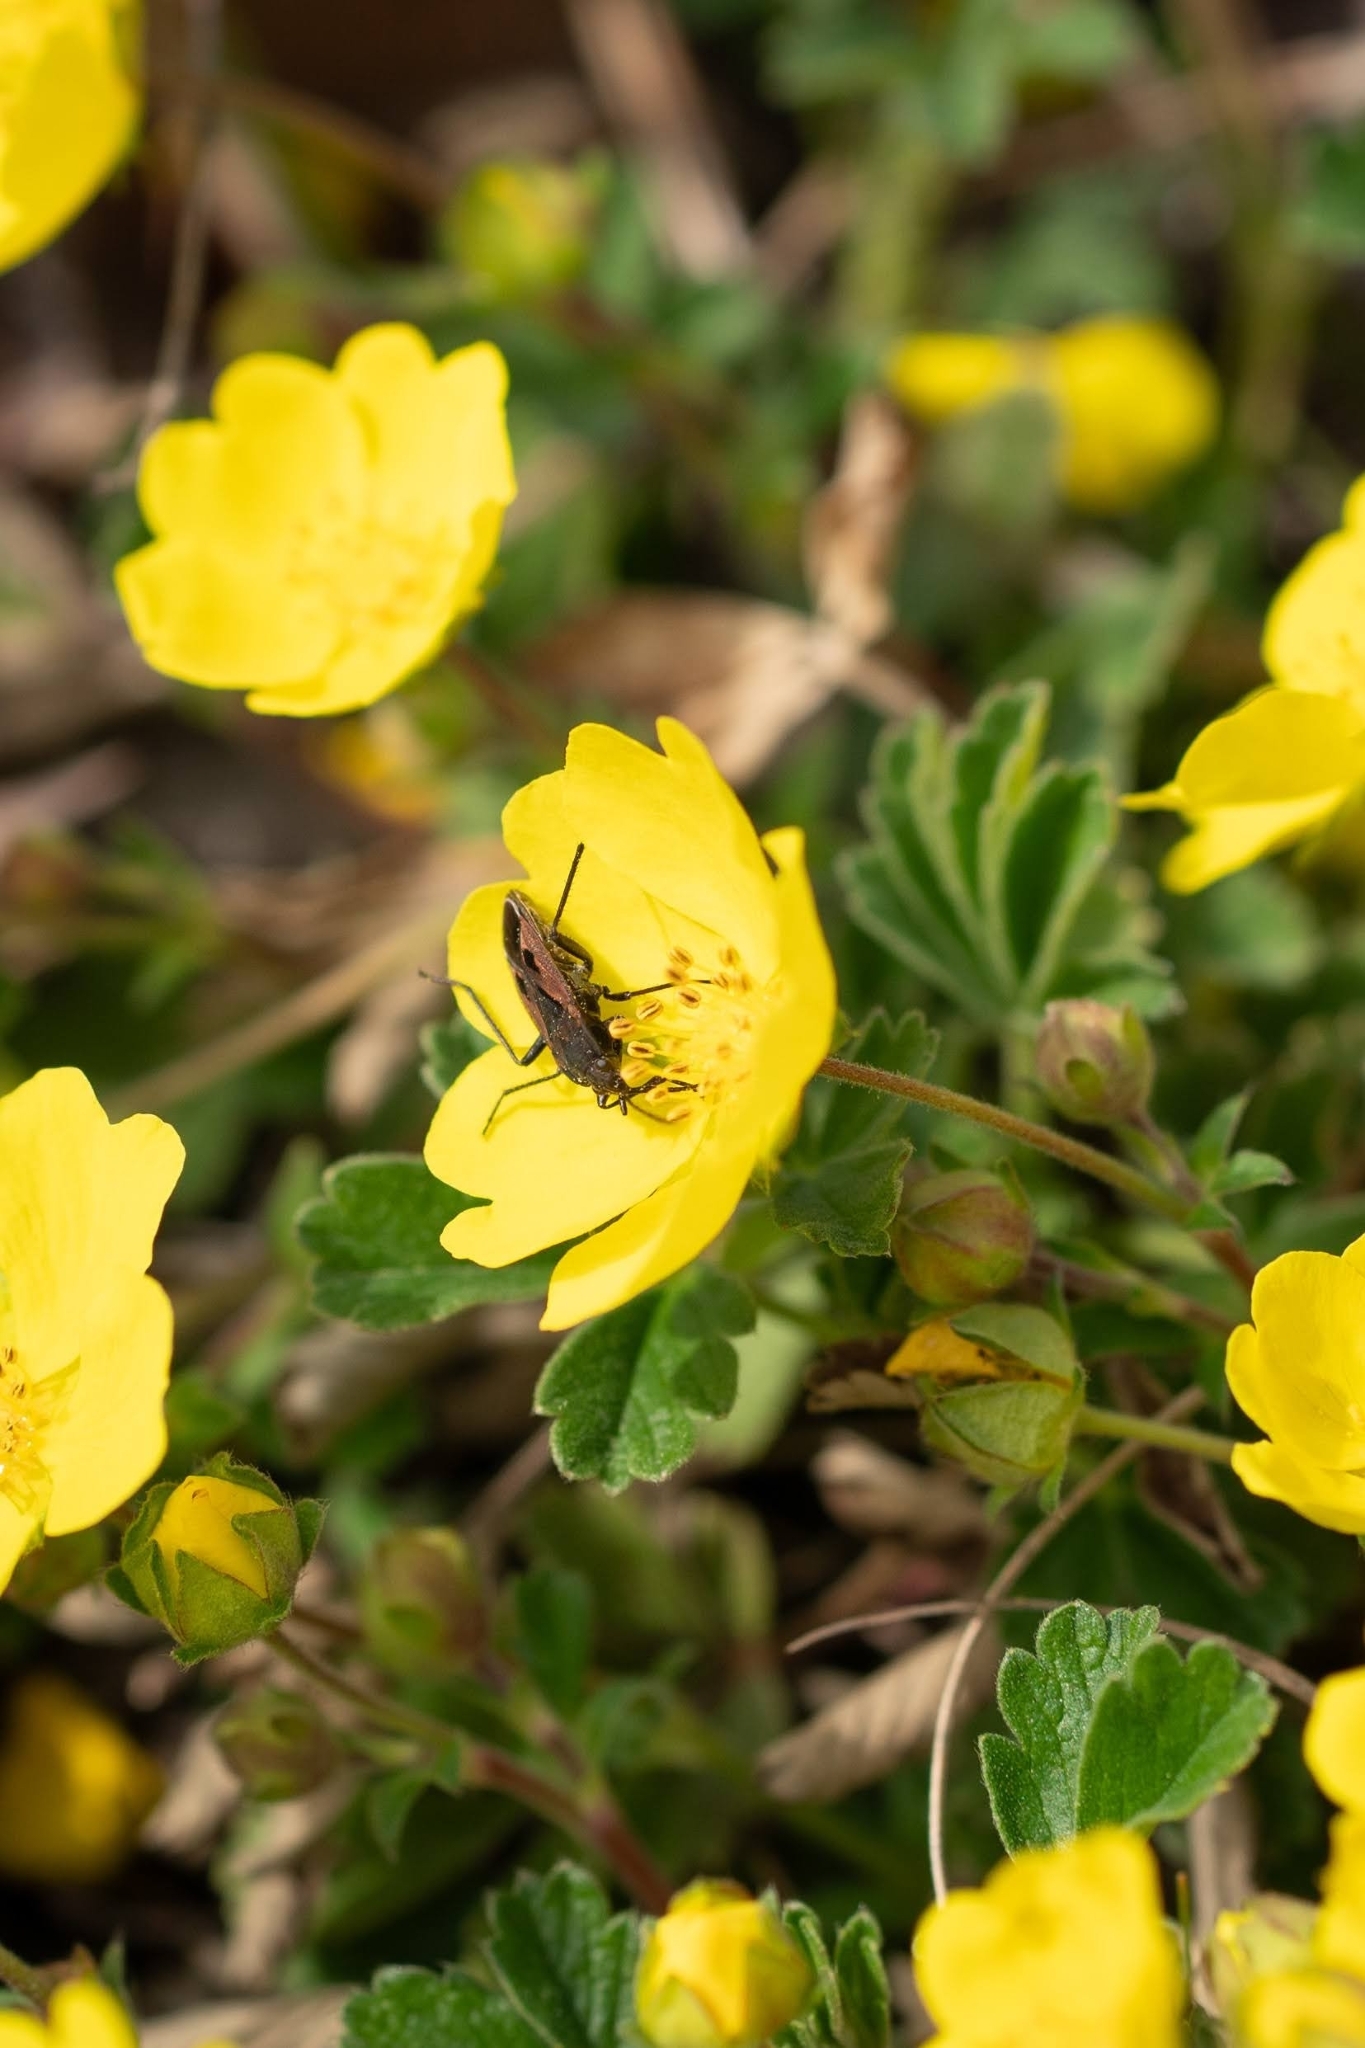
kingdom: Animalia
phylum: Arthropoda
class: Insecta
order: Hemiptera
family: Rhyparochromidae
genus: Rhyparochromus
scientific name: Rhyparochromus phoeniceus
